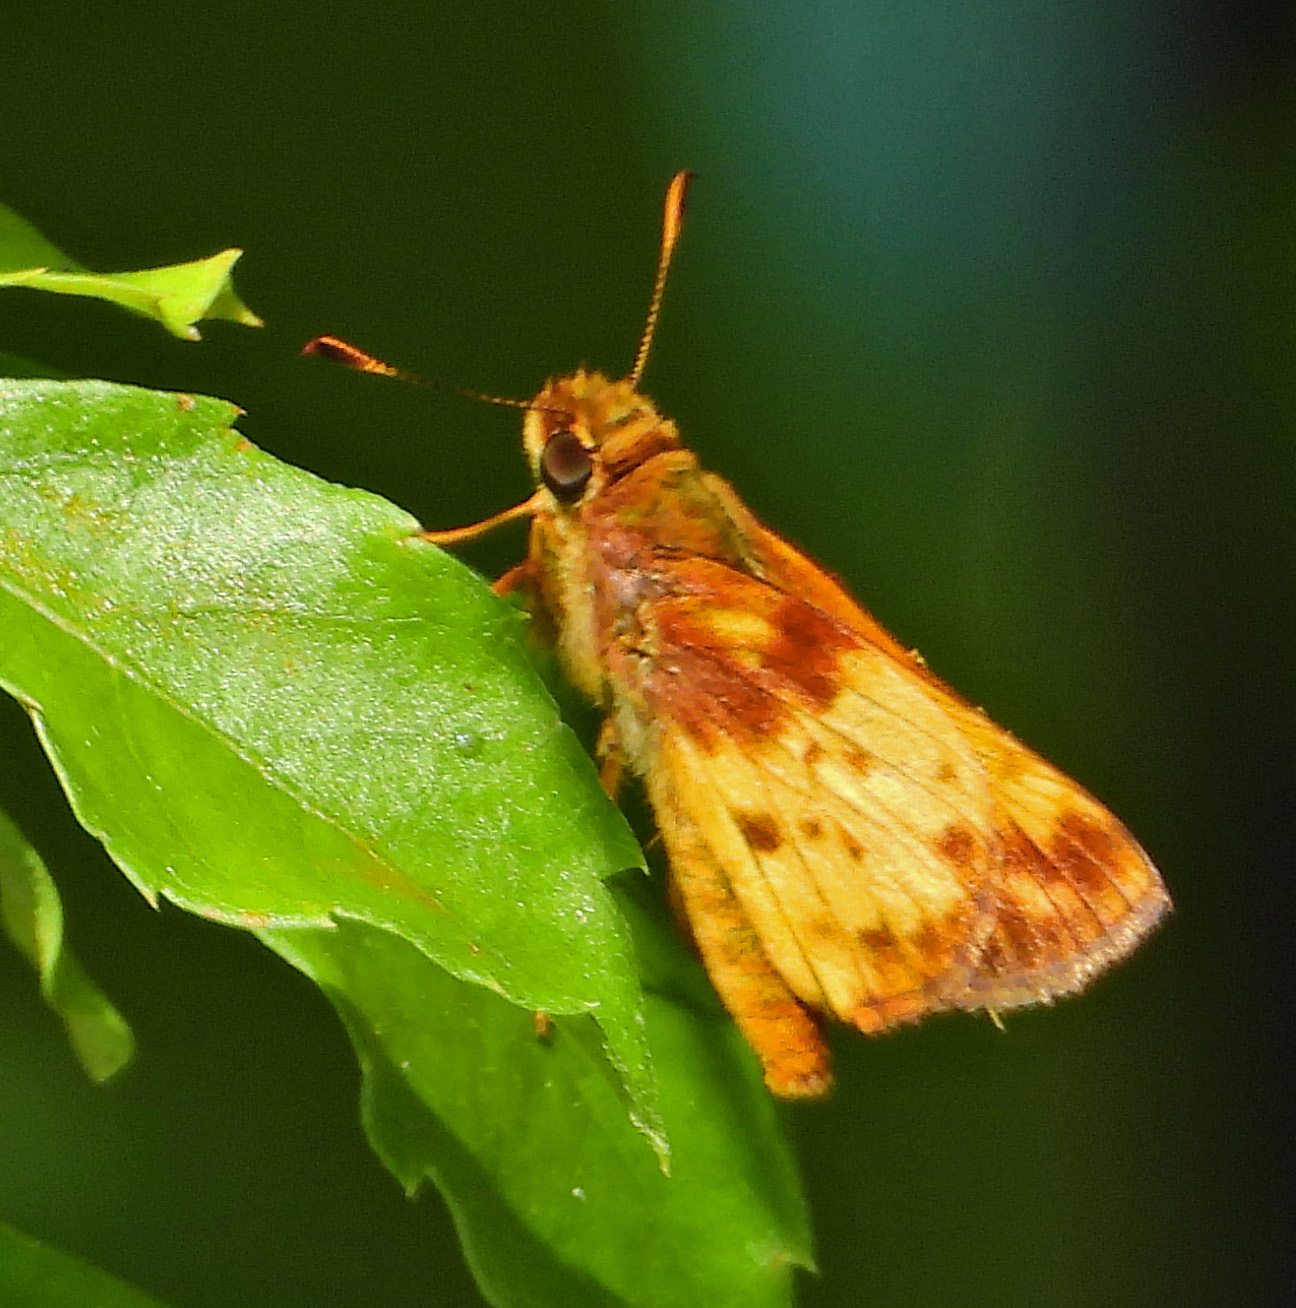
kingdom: Animalia
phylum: Arthropoda
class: Insecta
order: Lepidoptera
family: Hesperiidae
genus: Lon
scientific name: Lon zabulon
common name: Zabulon skipper
